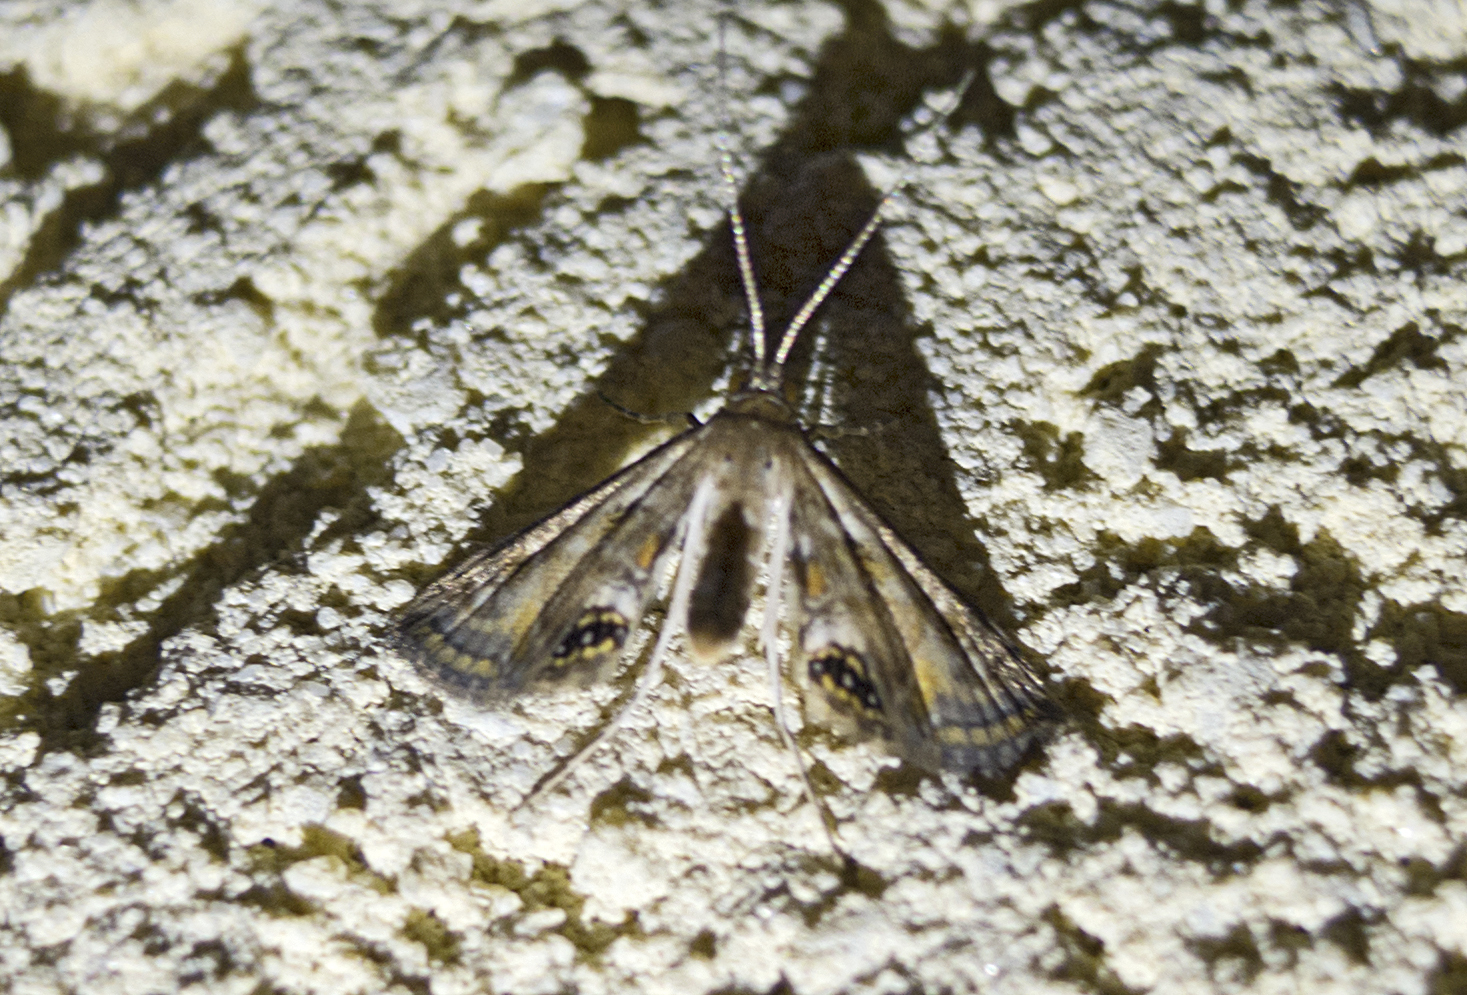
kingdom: Animalia
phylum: Arthropoda
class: Insecta
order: Lepidoptera
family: Crambidae
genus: Cataclysta
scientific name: Cataclysta lemnata
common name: Small china-mark
